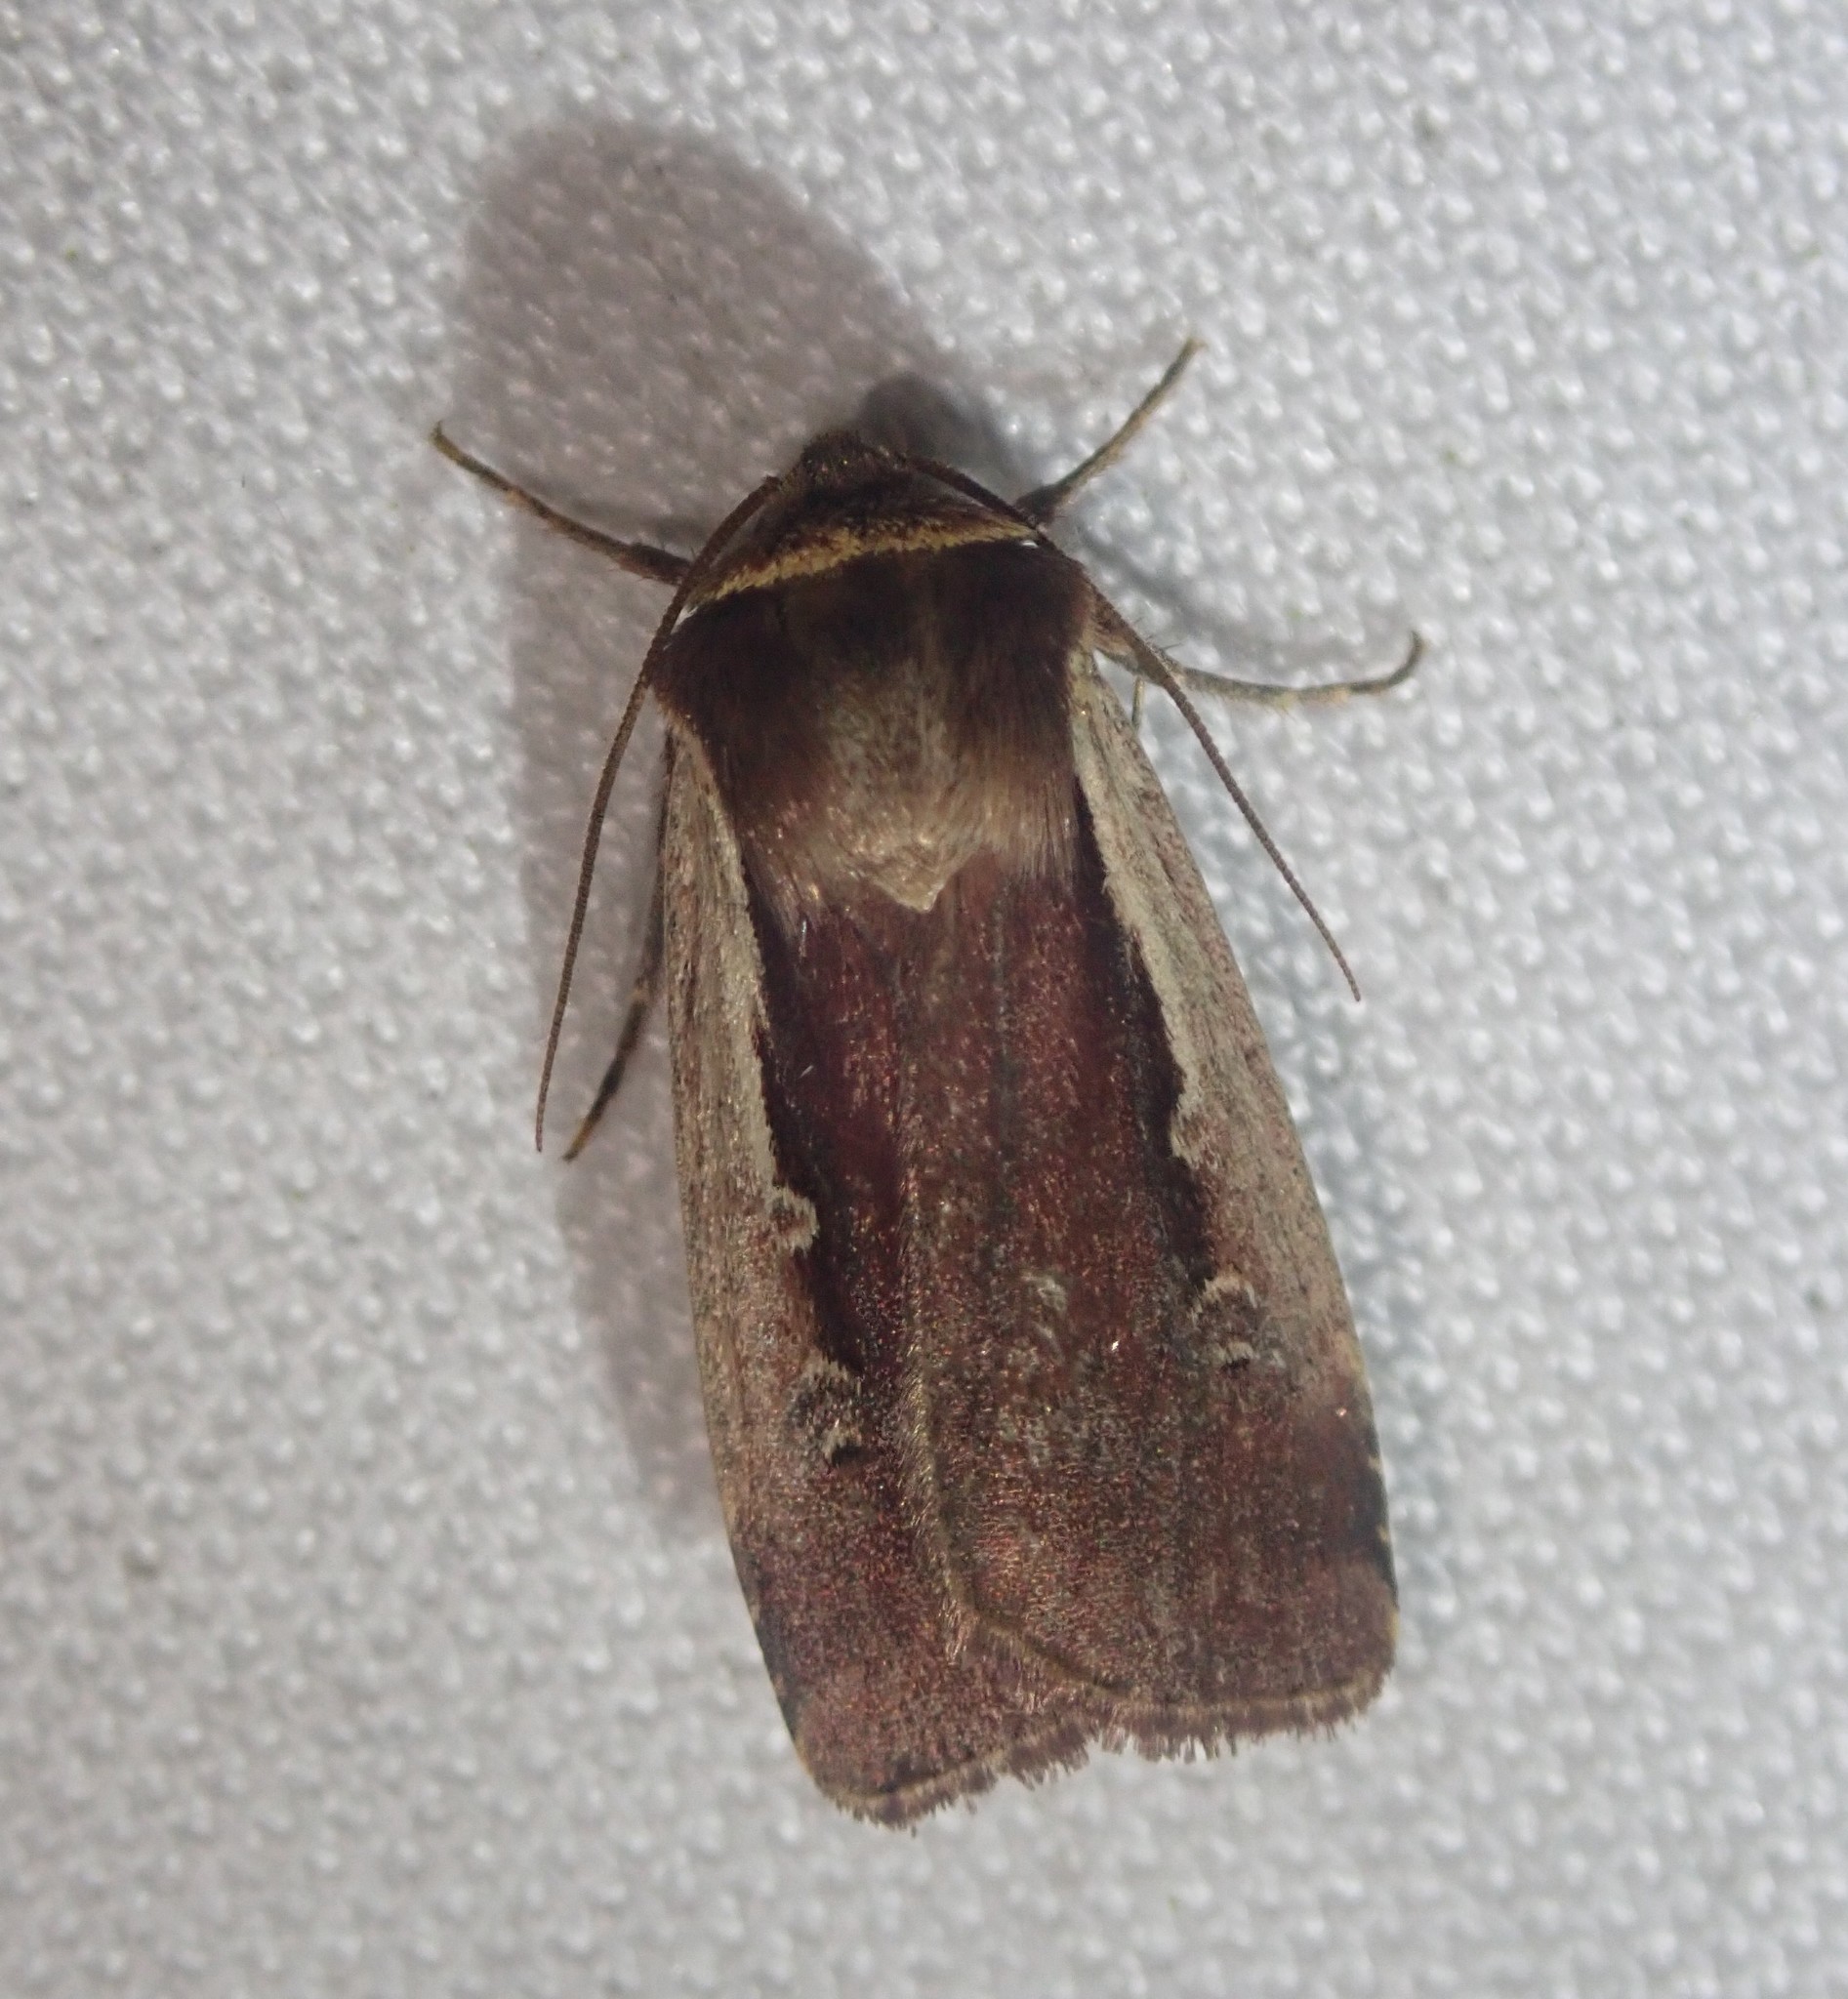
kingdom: Animalia
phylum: Arthropoda
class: Insecta
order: Lepidoptera
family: Noctuidae
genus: Ochropleura
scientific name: Ochropleura plecta
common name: Flame shoulder
